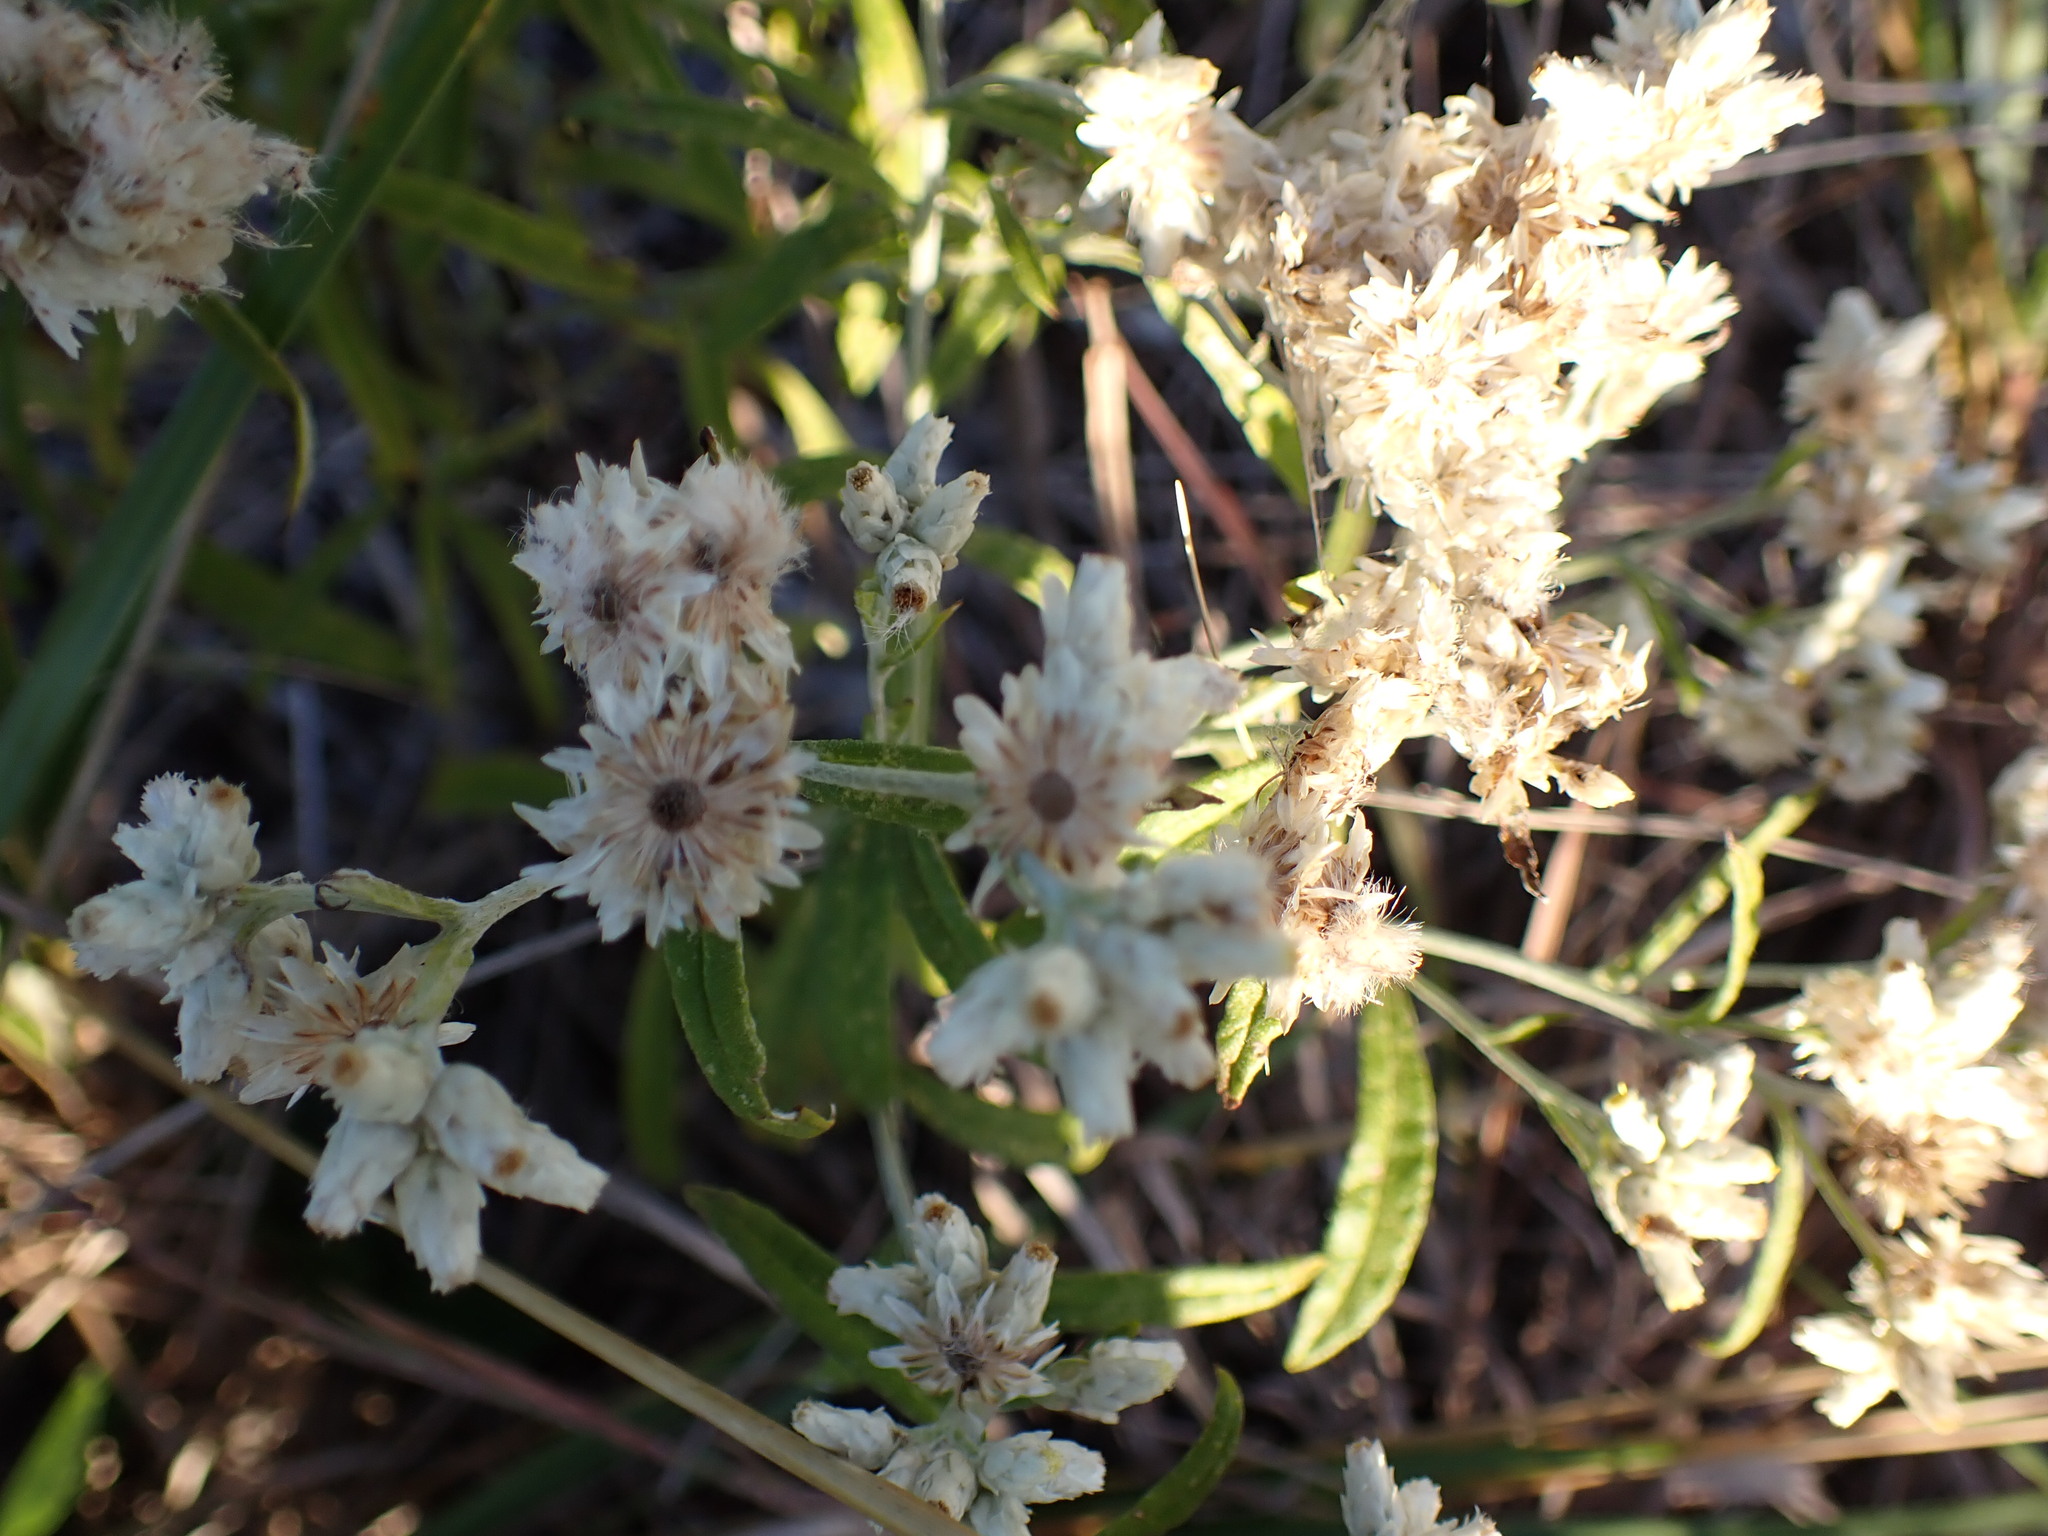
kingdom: Plantae
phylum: Tracheophyta
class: Magnoliopsida
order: Asterales
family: Asteraceae
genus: Pseudognaphalium
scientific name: Pseudognaphalium obtusifolium
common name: Eastern rabbit-tobacco
